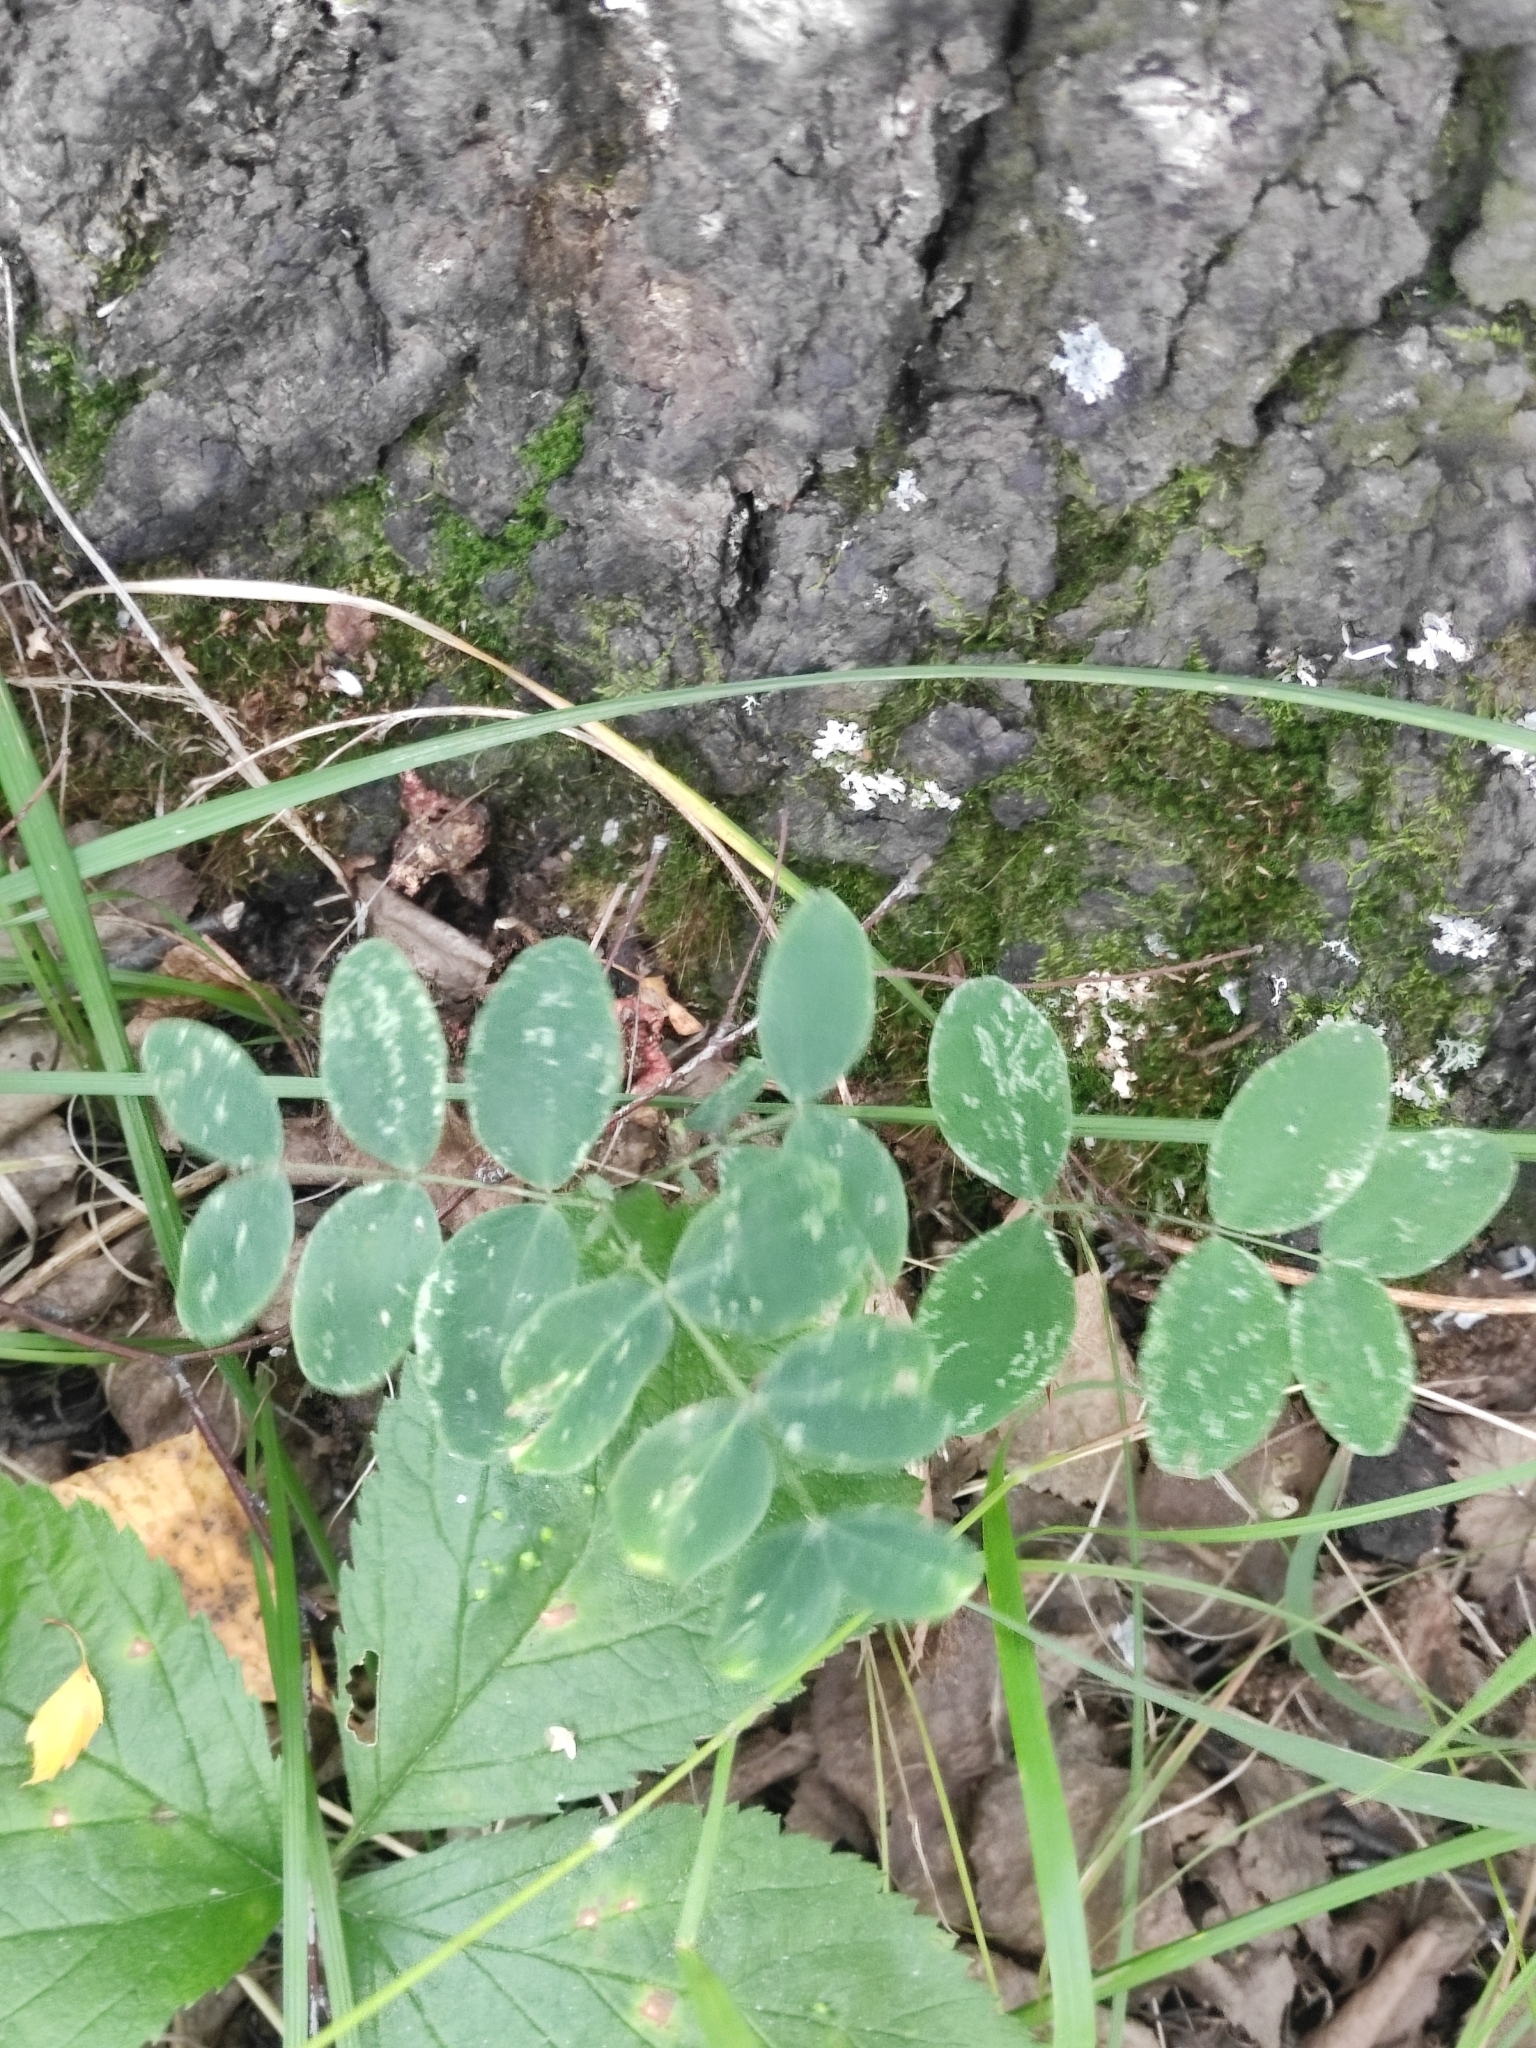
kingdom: Plantae
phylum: Tracheophyta
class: Magnoliopsida
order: Fabales
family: Fabaceae
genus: Lathyrus
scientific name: Lathyrus humilis
